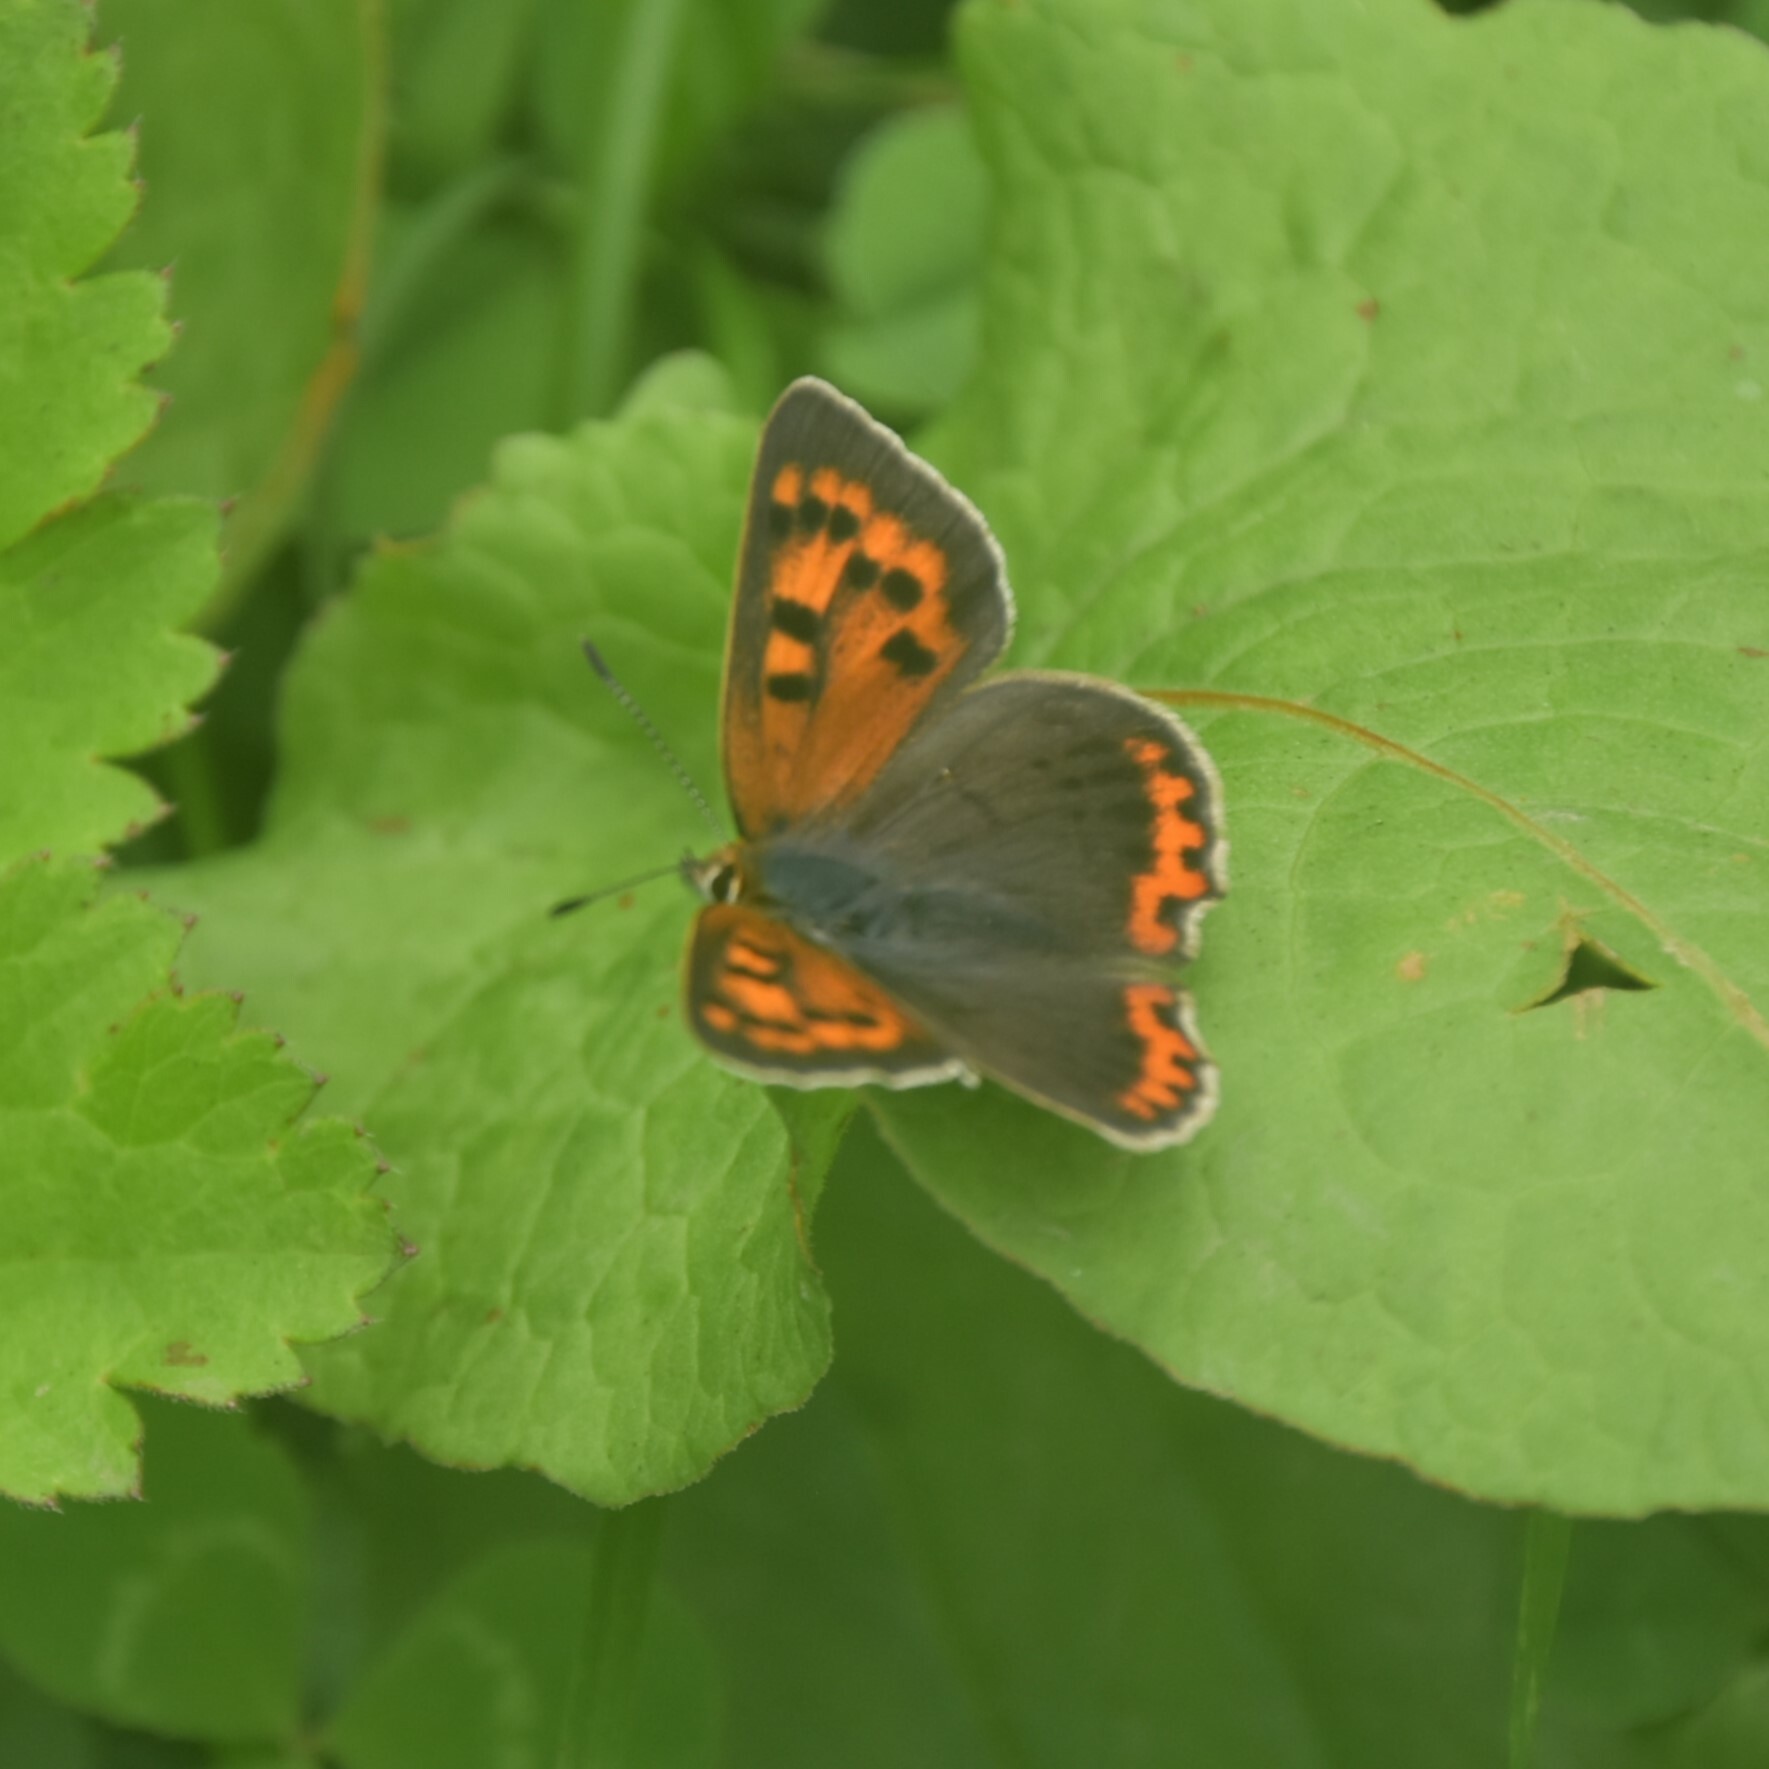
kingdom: Animalia
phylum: Arthropoda
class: Insecta
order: Lepidoptera
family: Lycaenidae
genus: Lycaena
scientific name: Lycaena phlaeas
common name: Small copper
